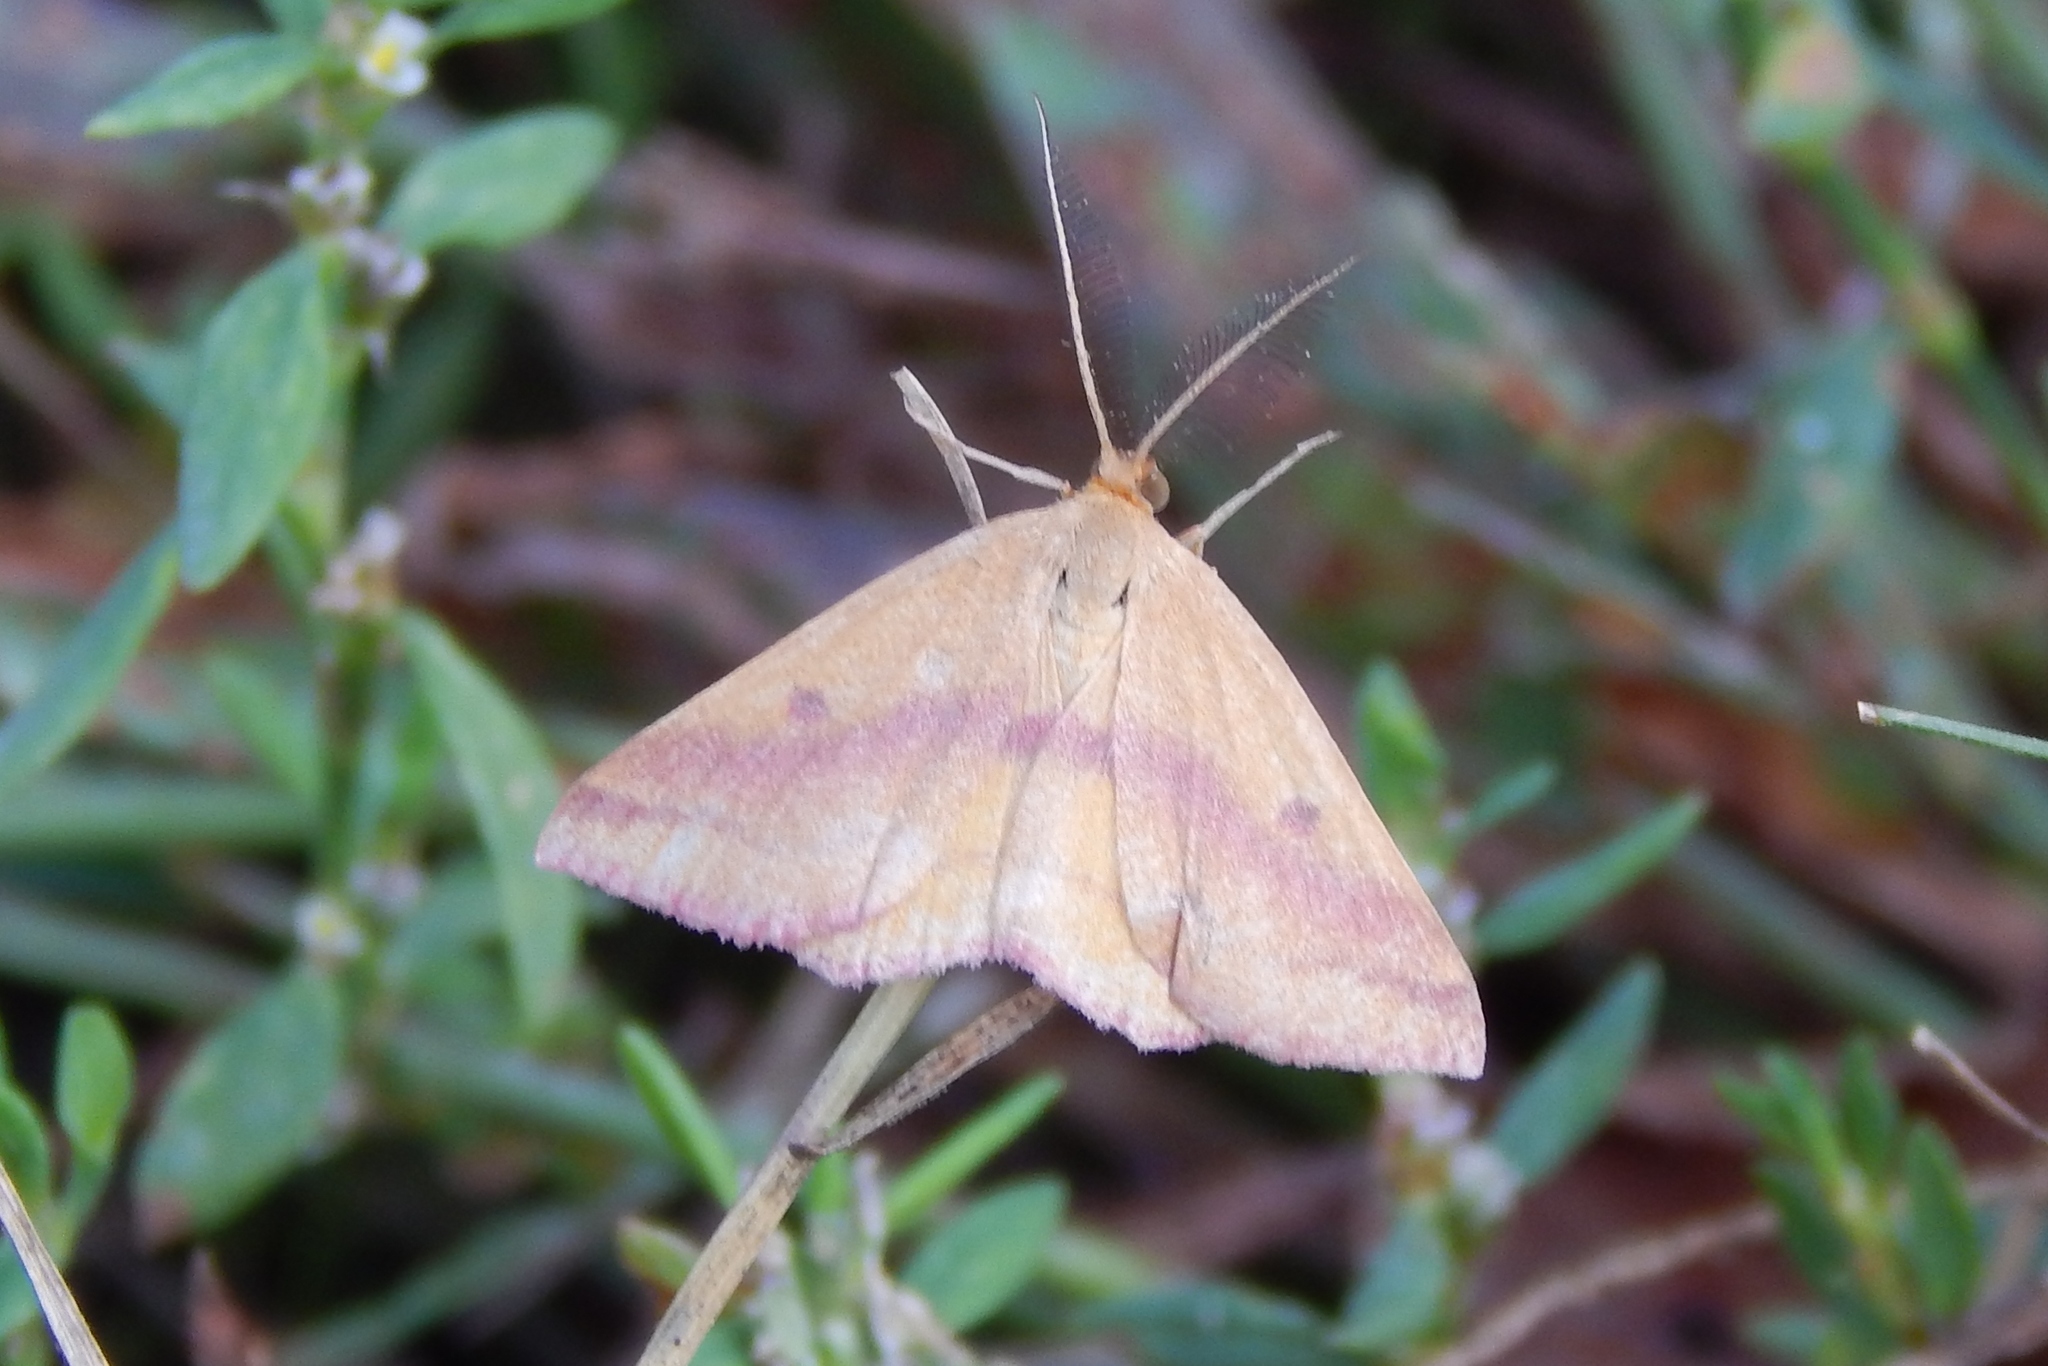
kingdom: Animalia
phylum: Arthropoda
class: Insecta
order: Lepidoptera
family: Geometridae
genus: Haematopis
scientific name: Haematopis grataria
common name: Chickweed geometer
